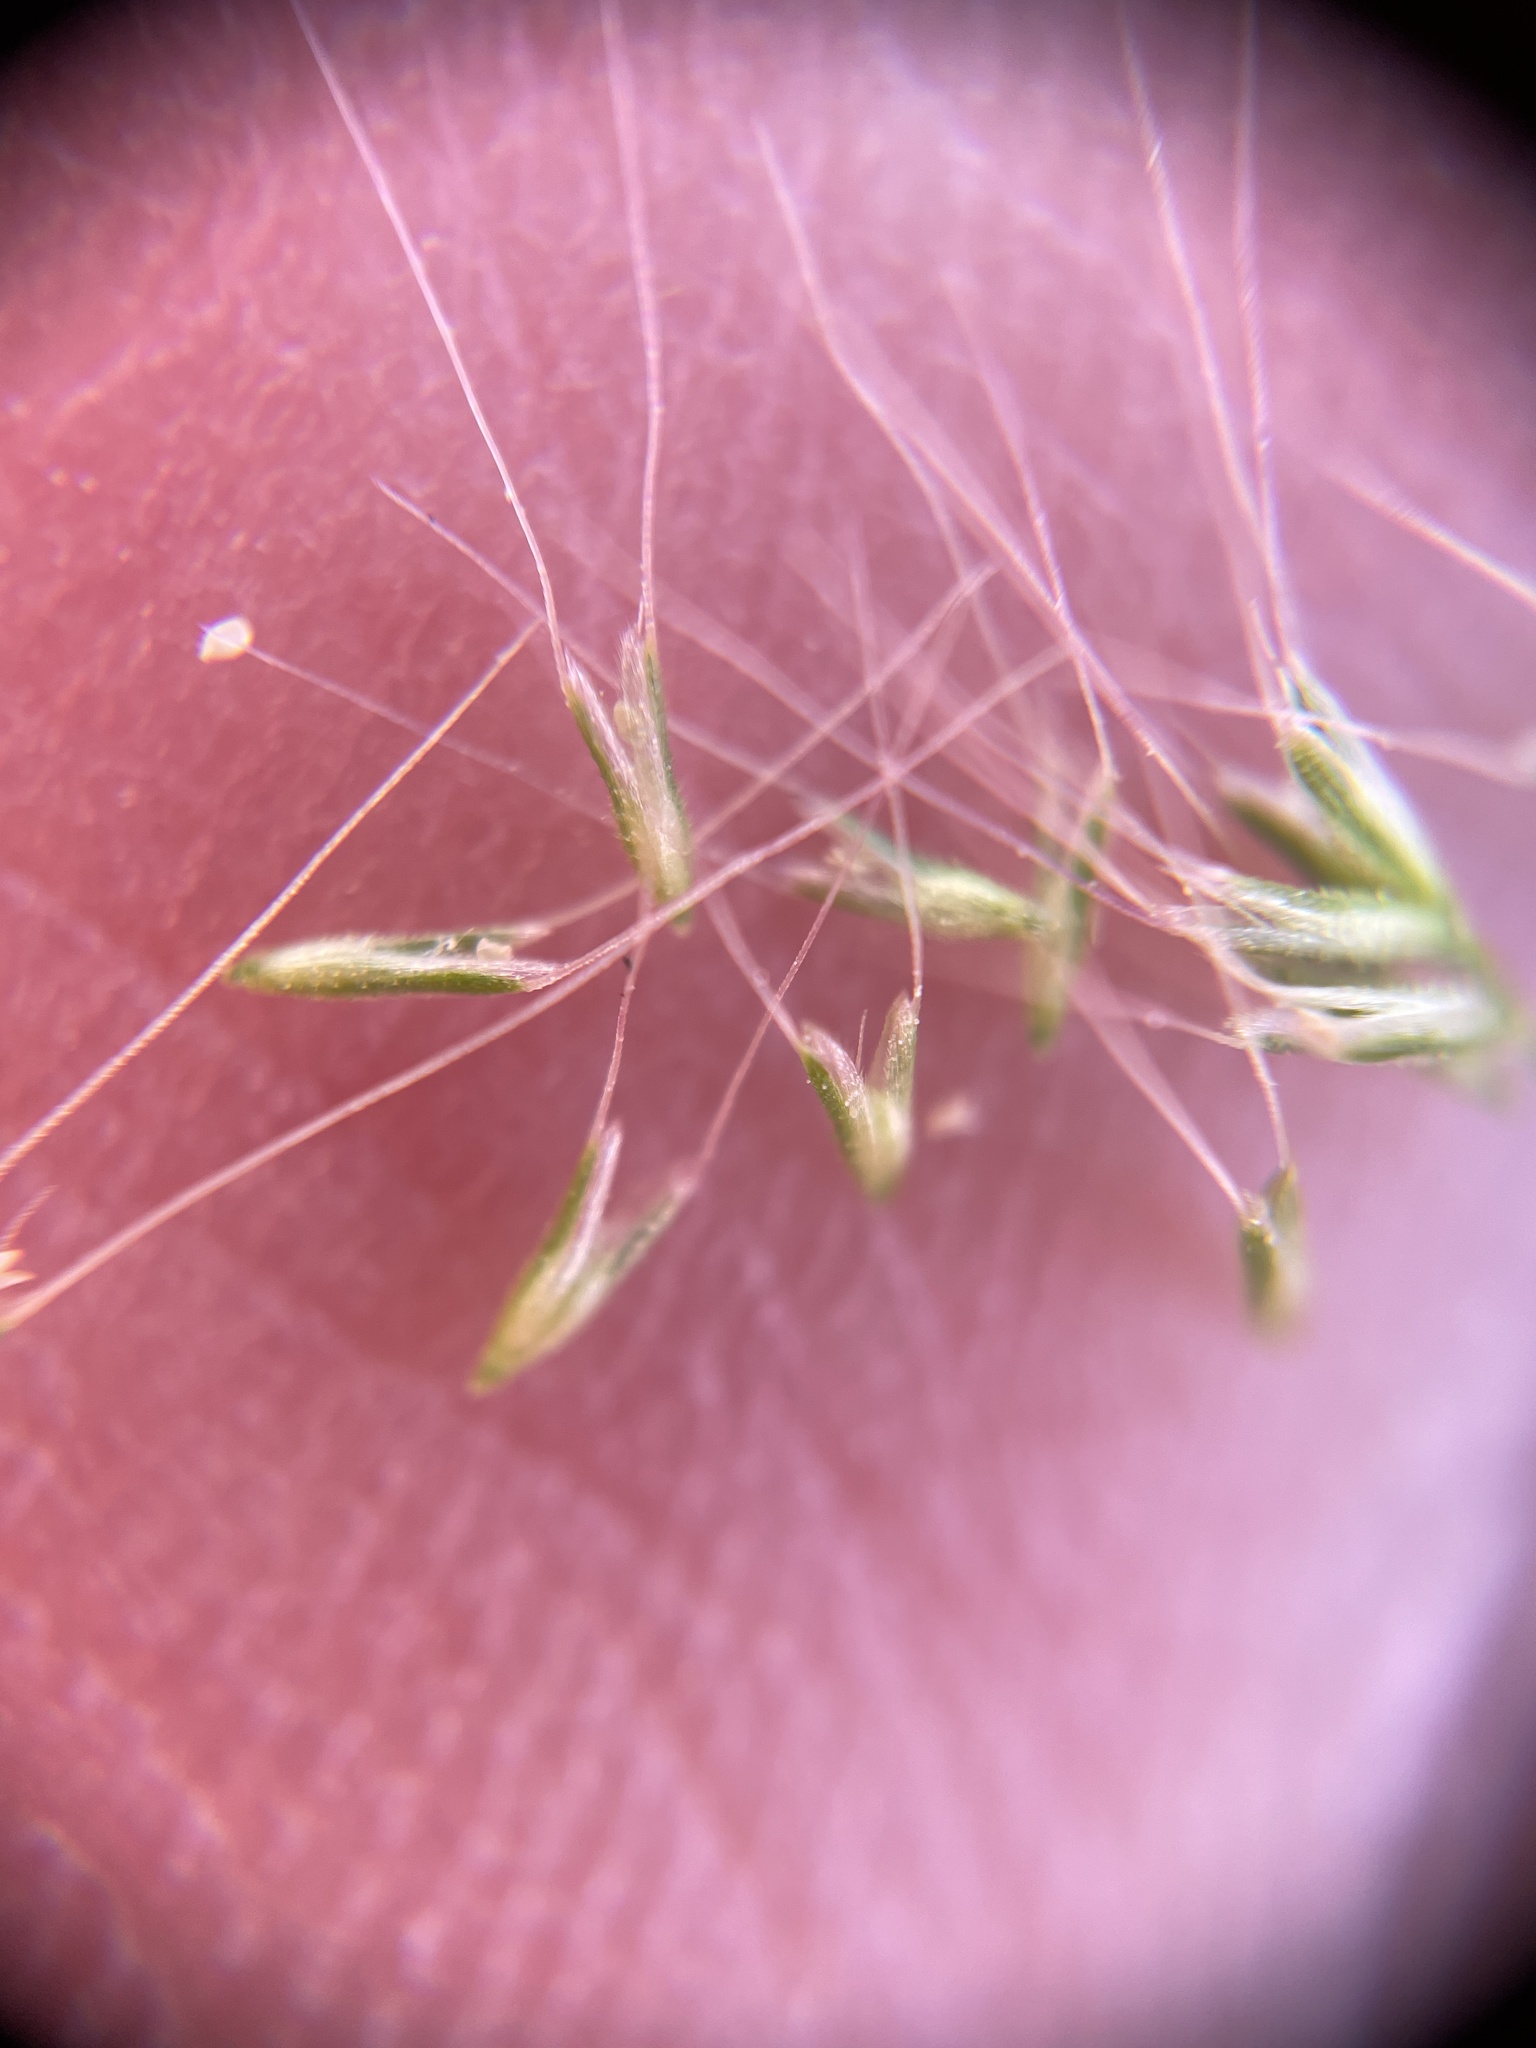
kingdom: Plantae
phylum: Tracheophyta
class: Liliopsida
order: Poales
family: Poaceae
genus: Polypogon
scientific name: Polypogon monspeliensis
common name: Annual rabbitsfoot grass
